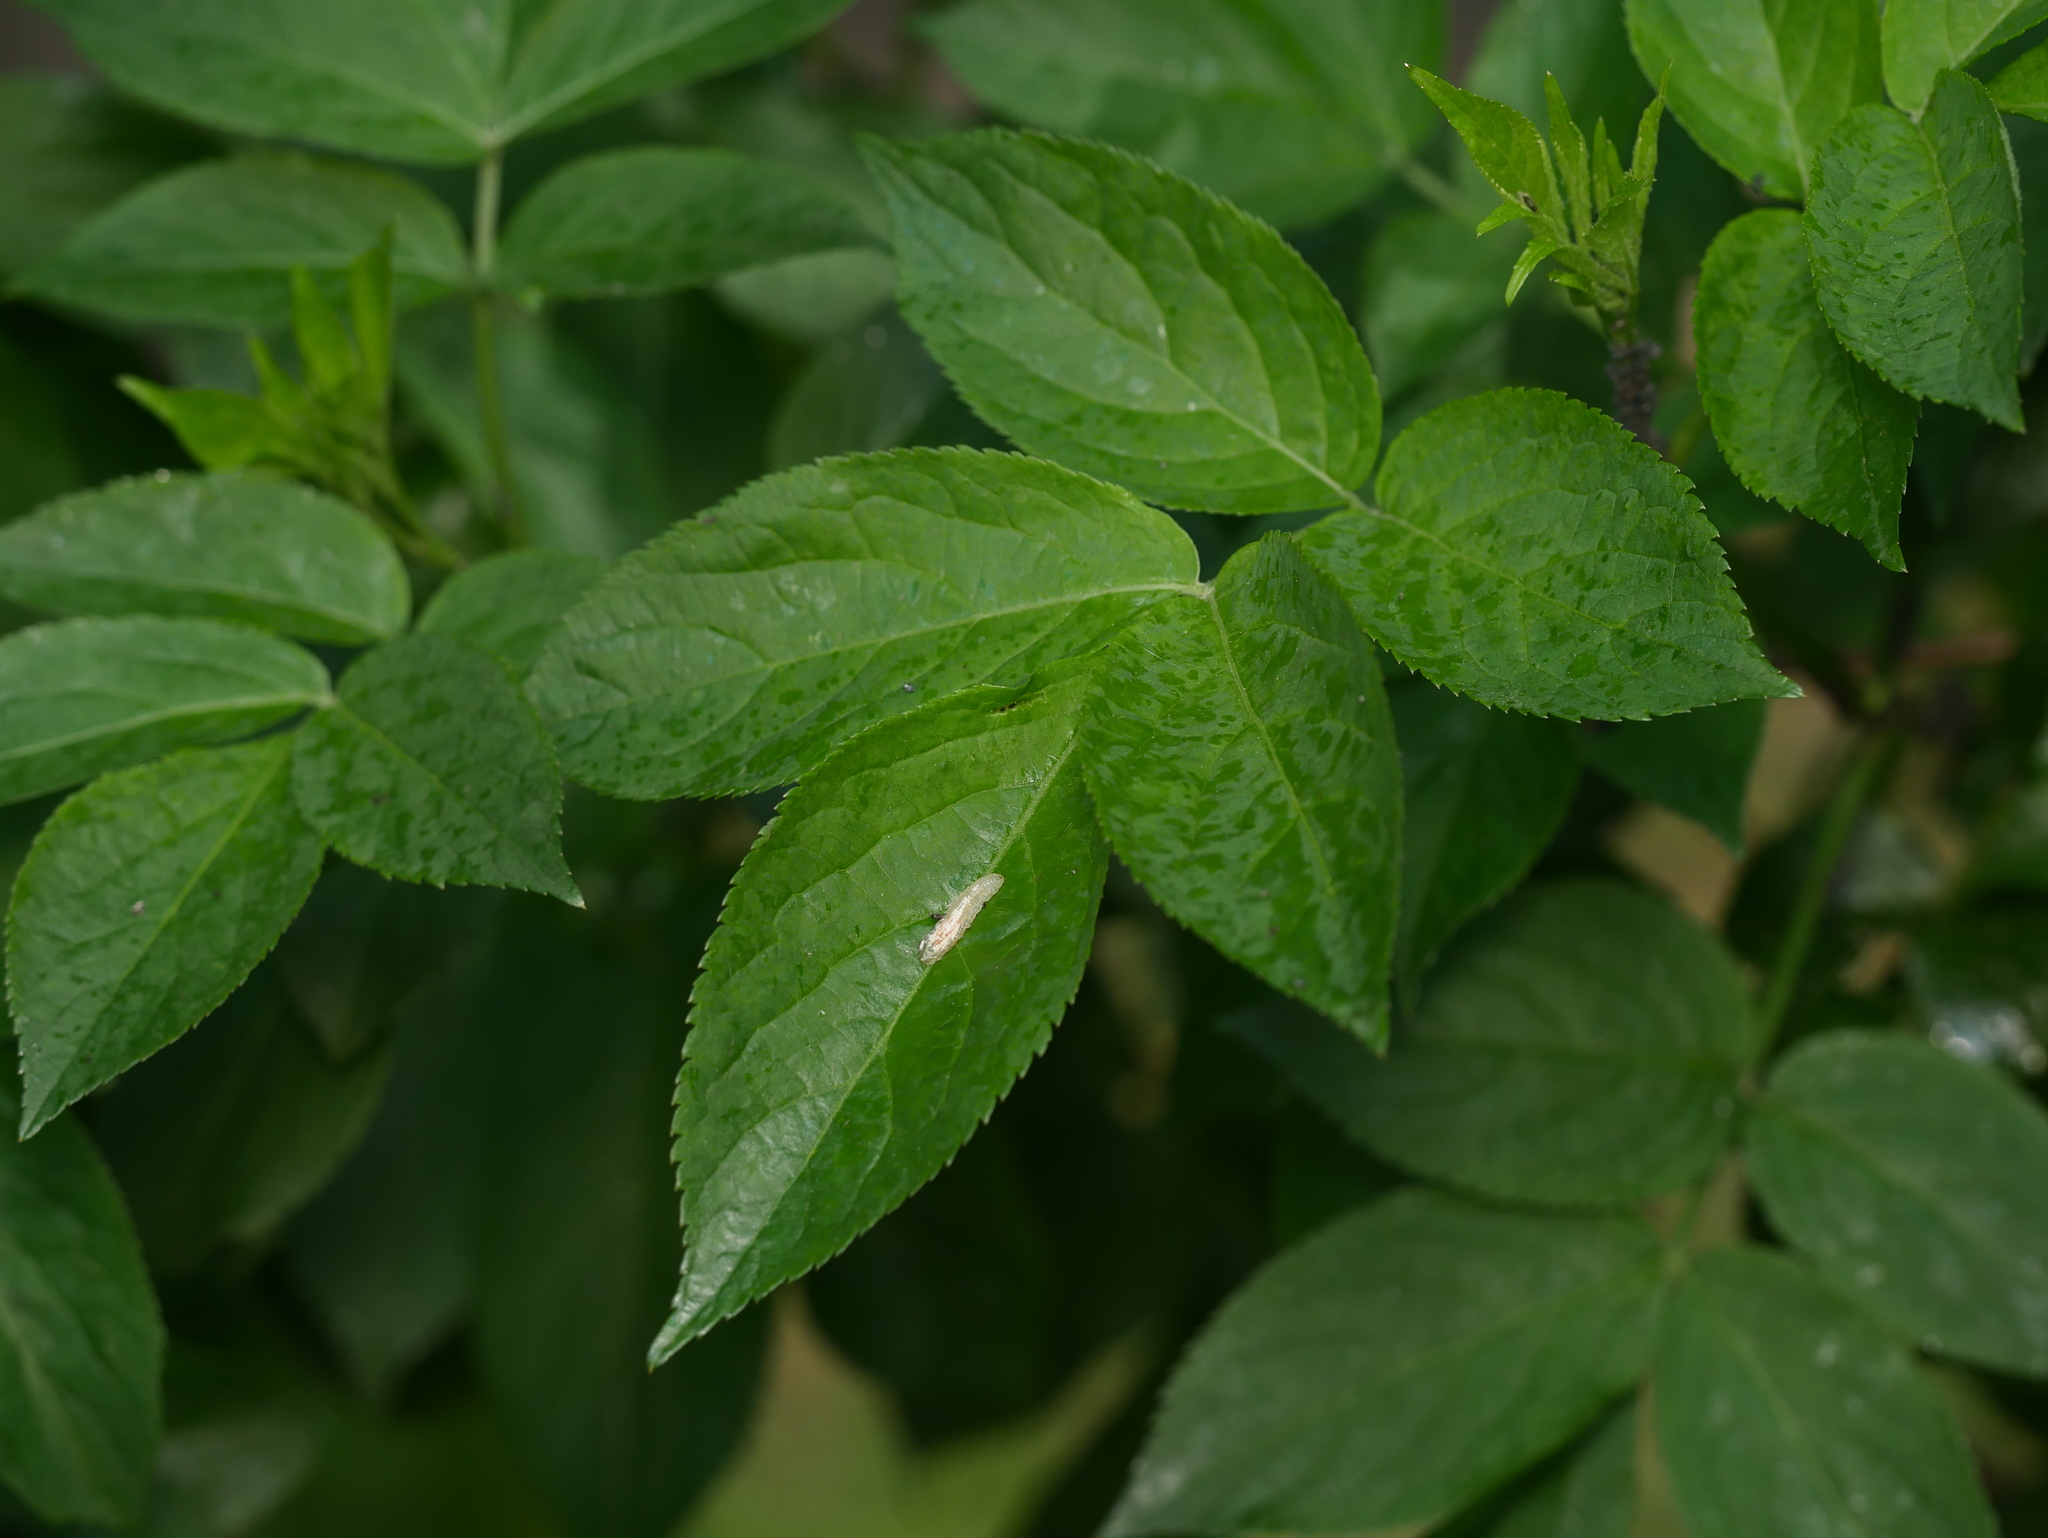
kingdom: Plantae
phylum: Tracheophyta
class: Magnoliopsida
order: Dipsacales
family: Viburnaceae
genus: Sambucus
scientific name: Sambucus nigra
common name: Elder
